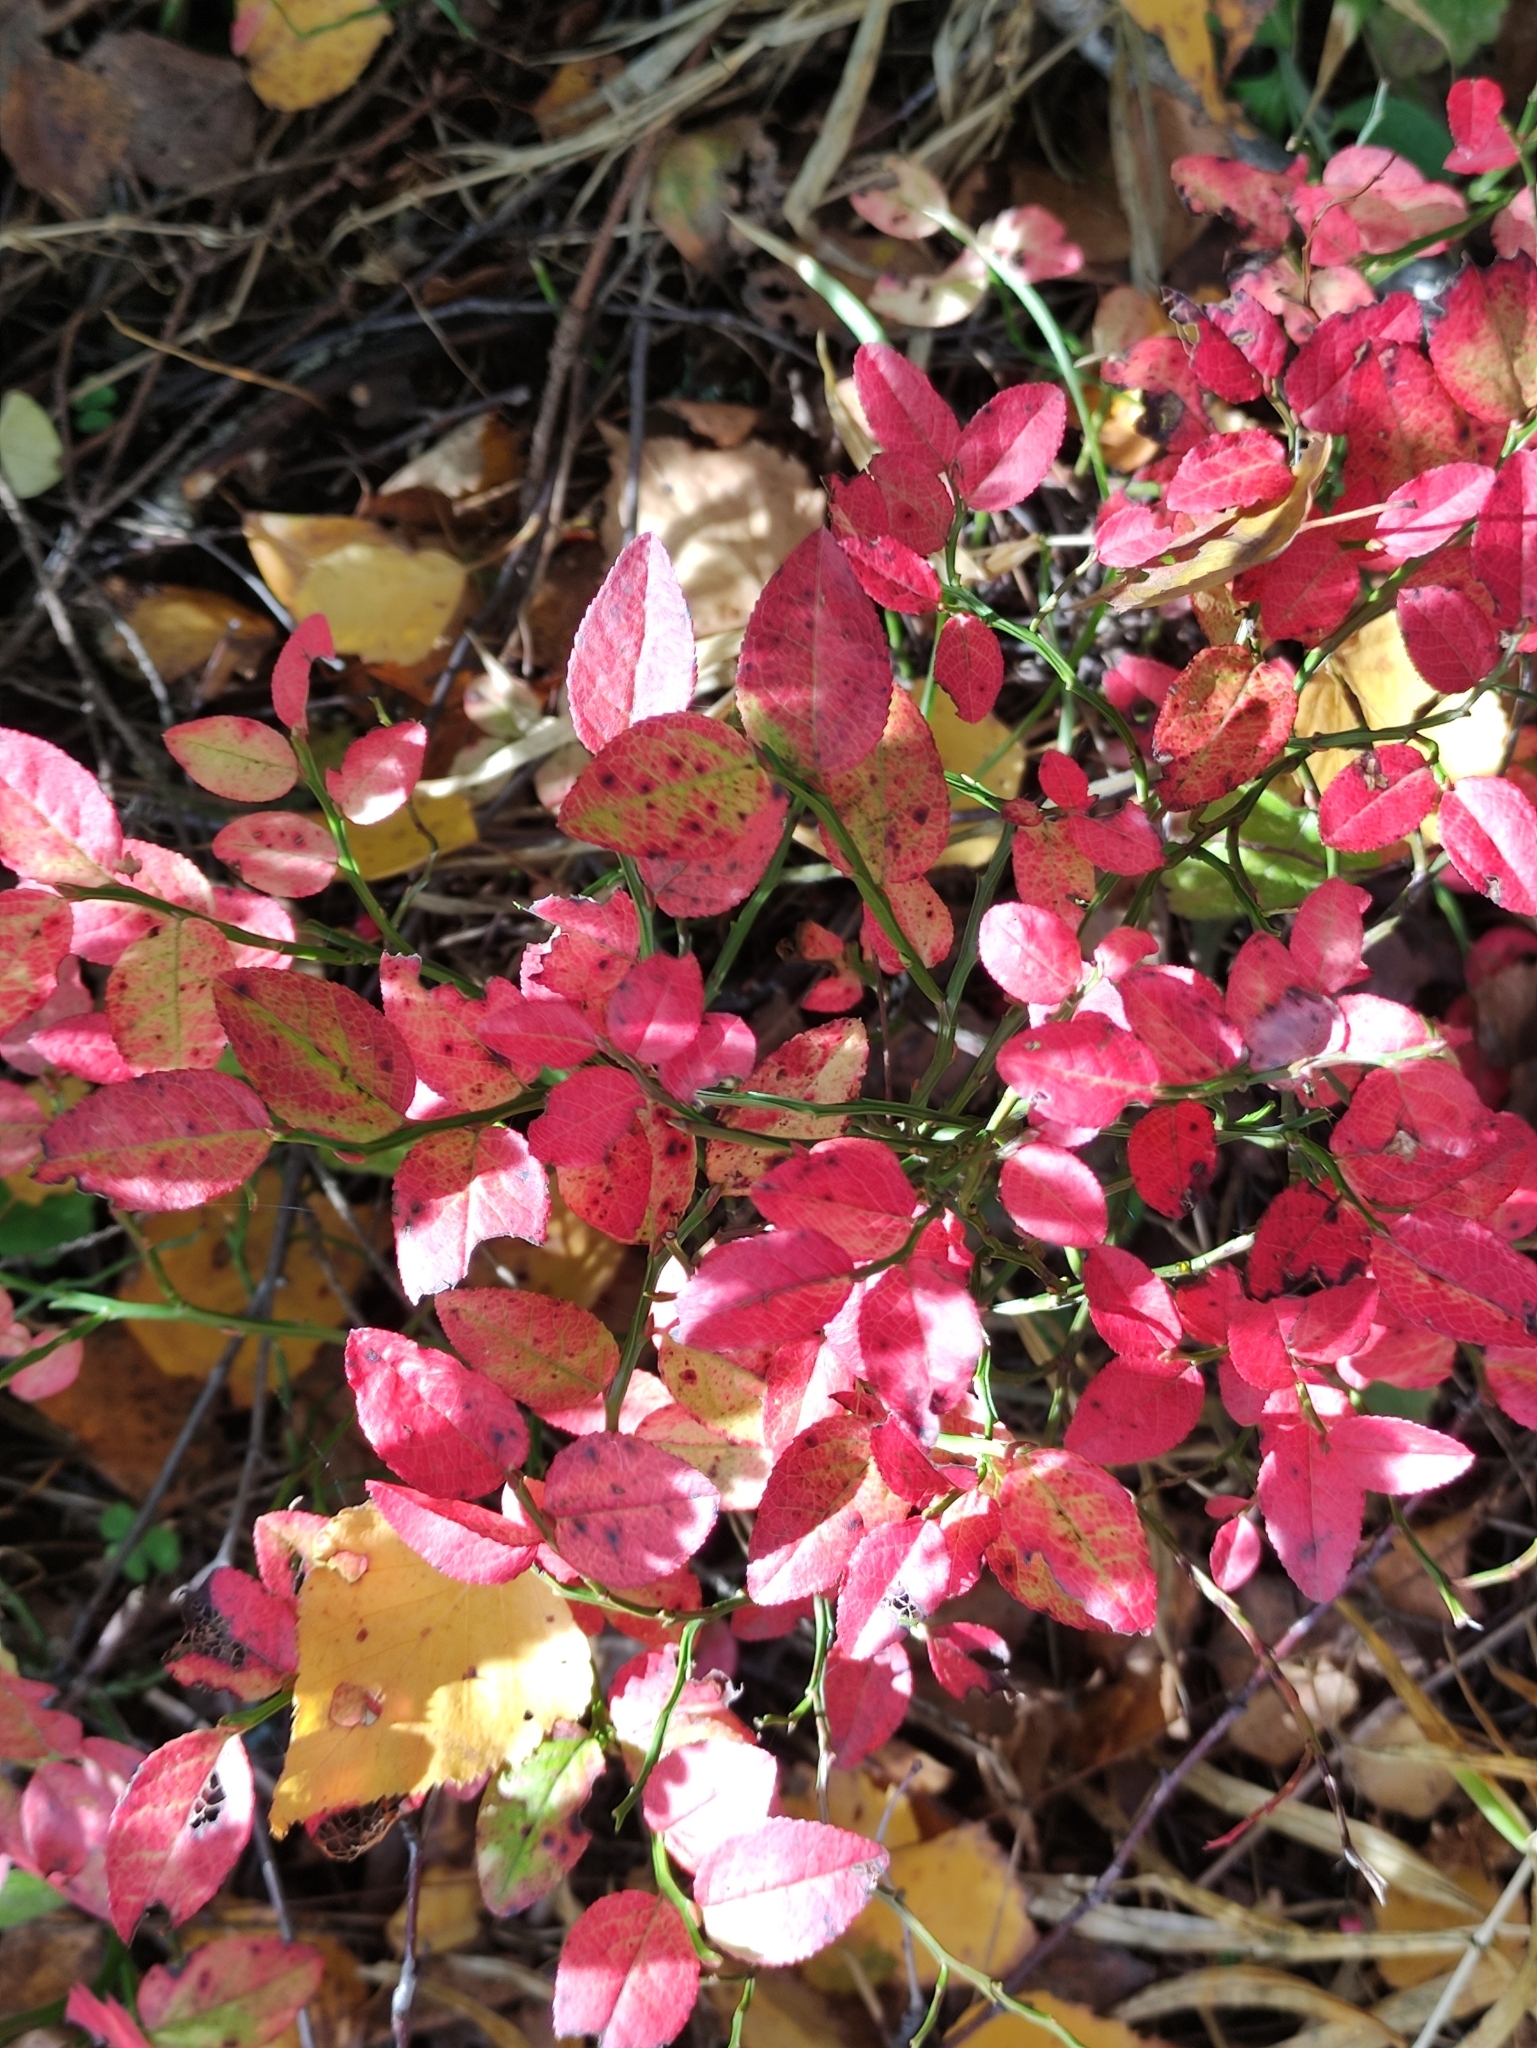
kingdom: Plantae
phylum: Tracheophyta
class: Magnoliopsida
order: Ericales
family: Ericaceae
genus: Vaccinium
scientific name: Vaccinium myrtillus
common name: Bilberry
